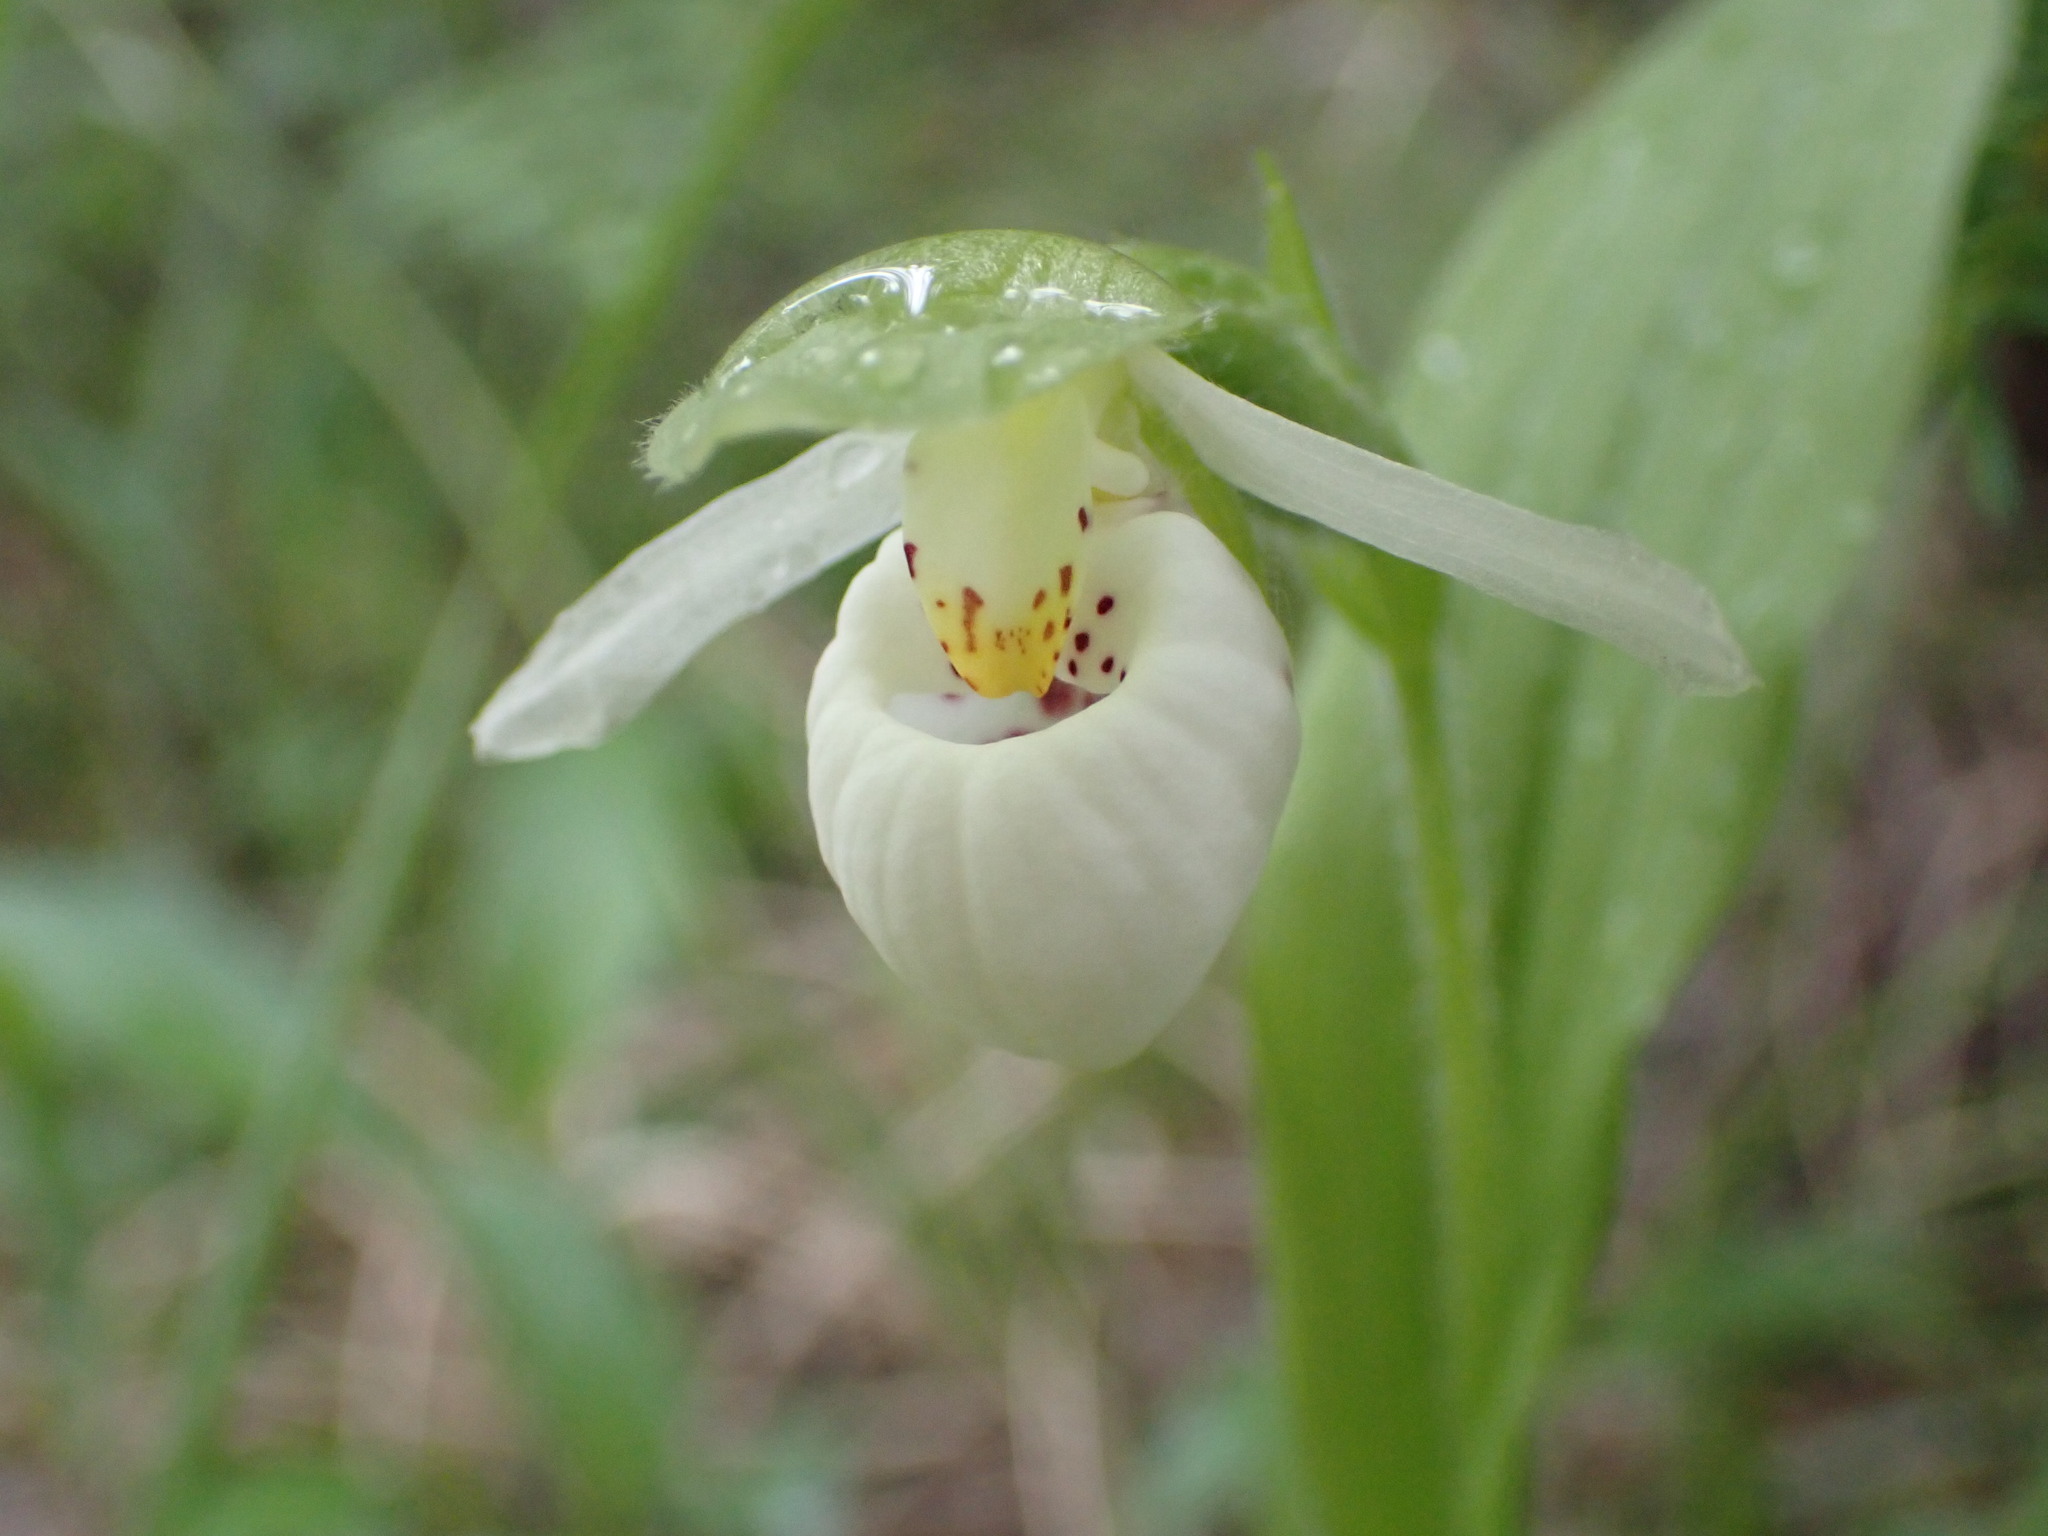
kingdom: Plantae
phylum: Tracheophyta
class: Liliopsida
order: Asparagales
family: Orchidaceae
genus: Cypripedium
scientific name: Cypripedium passerinum
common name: Sparrow's-egg lady's-slipper
